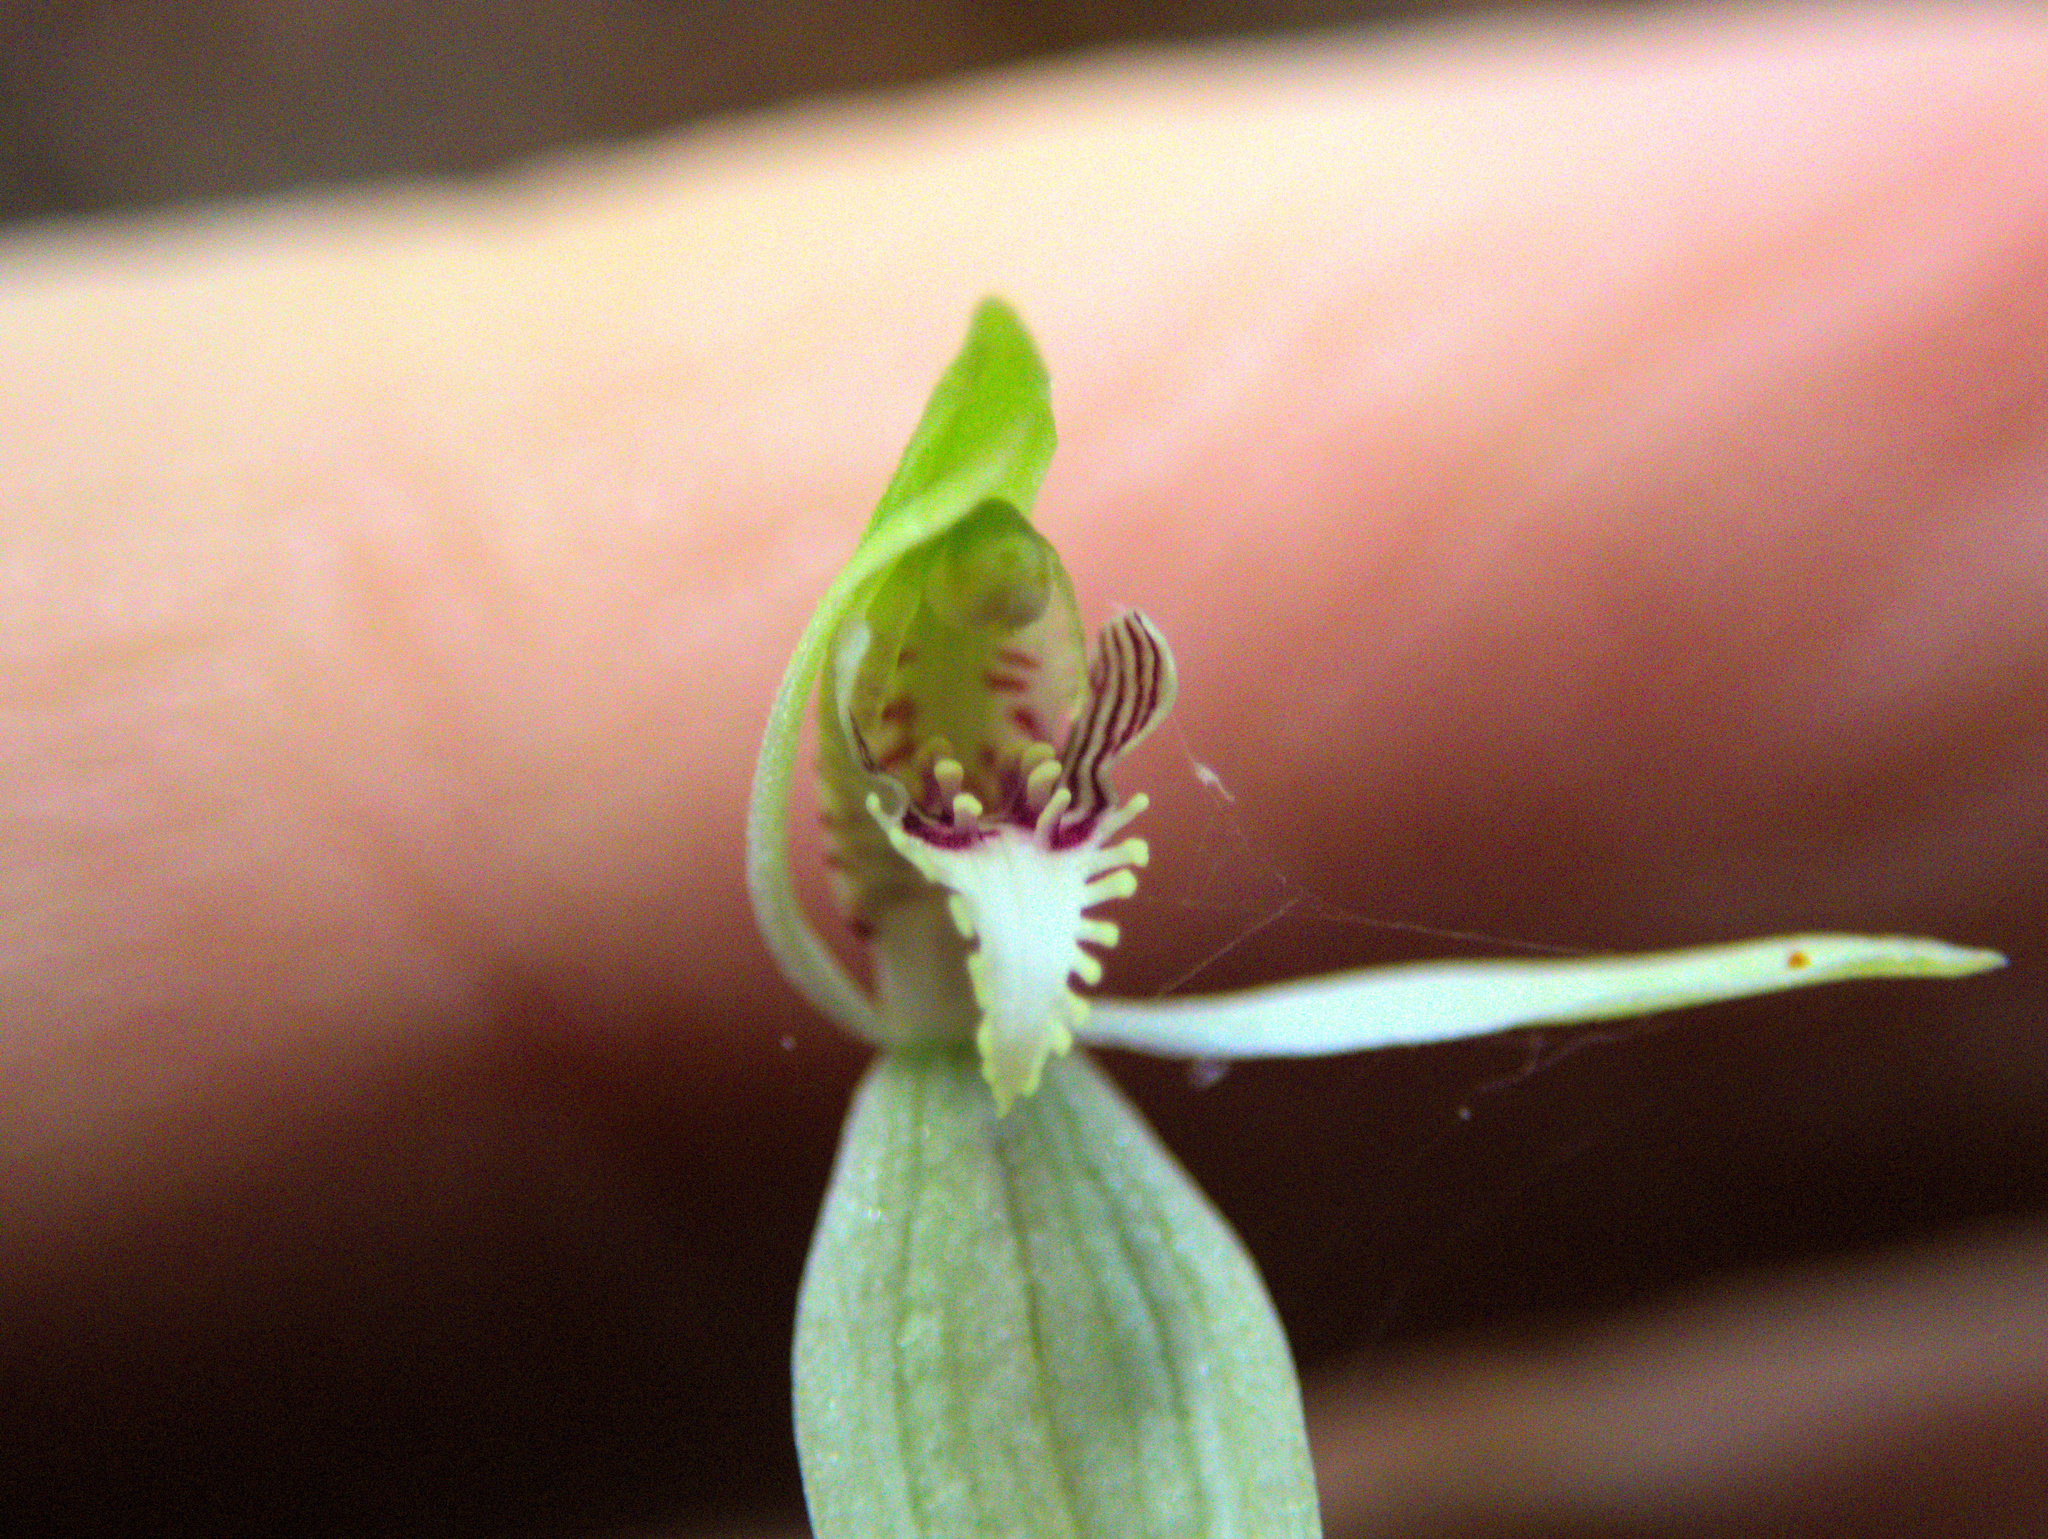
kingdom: Plantae
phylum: Tracheophyta
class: Liliopsida
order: Asparagales
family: Orchidaceae
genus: Caladenia
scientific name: Caladenia chlorostyla
